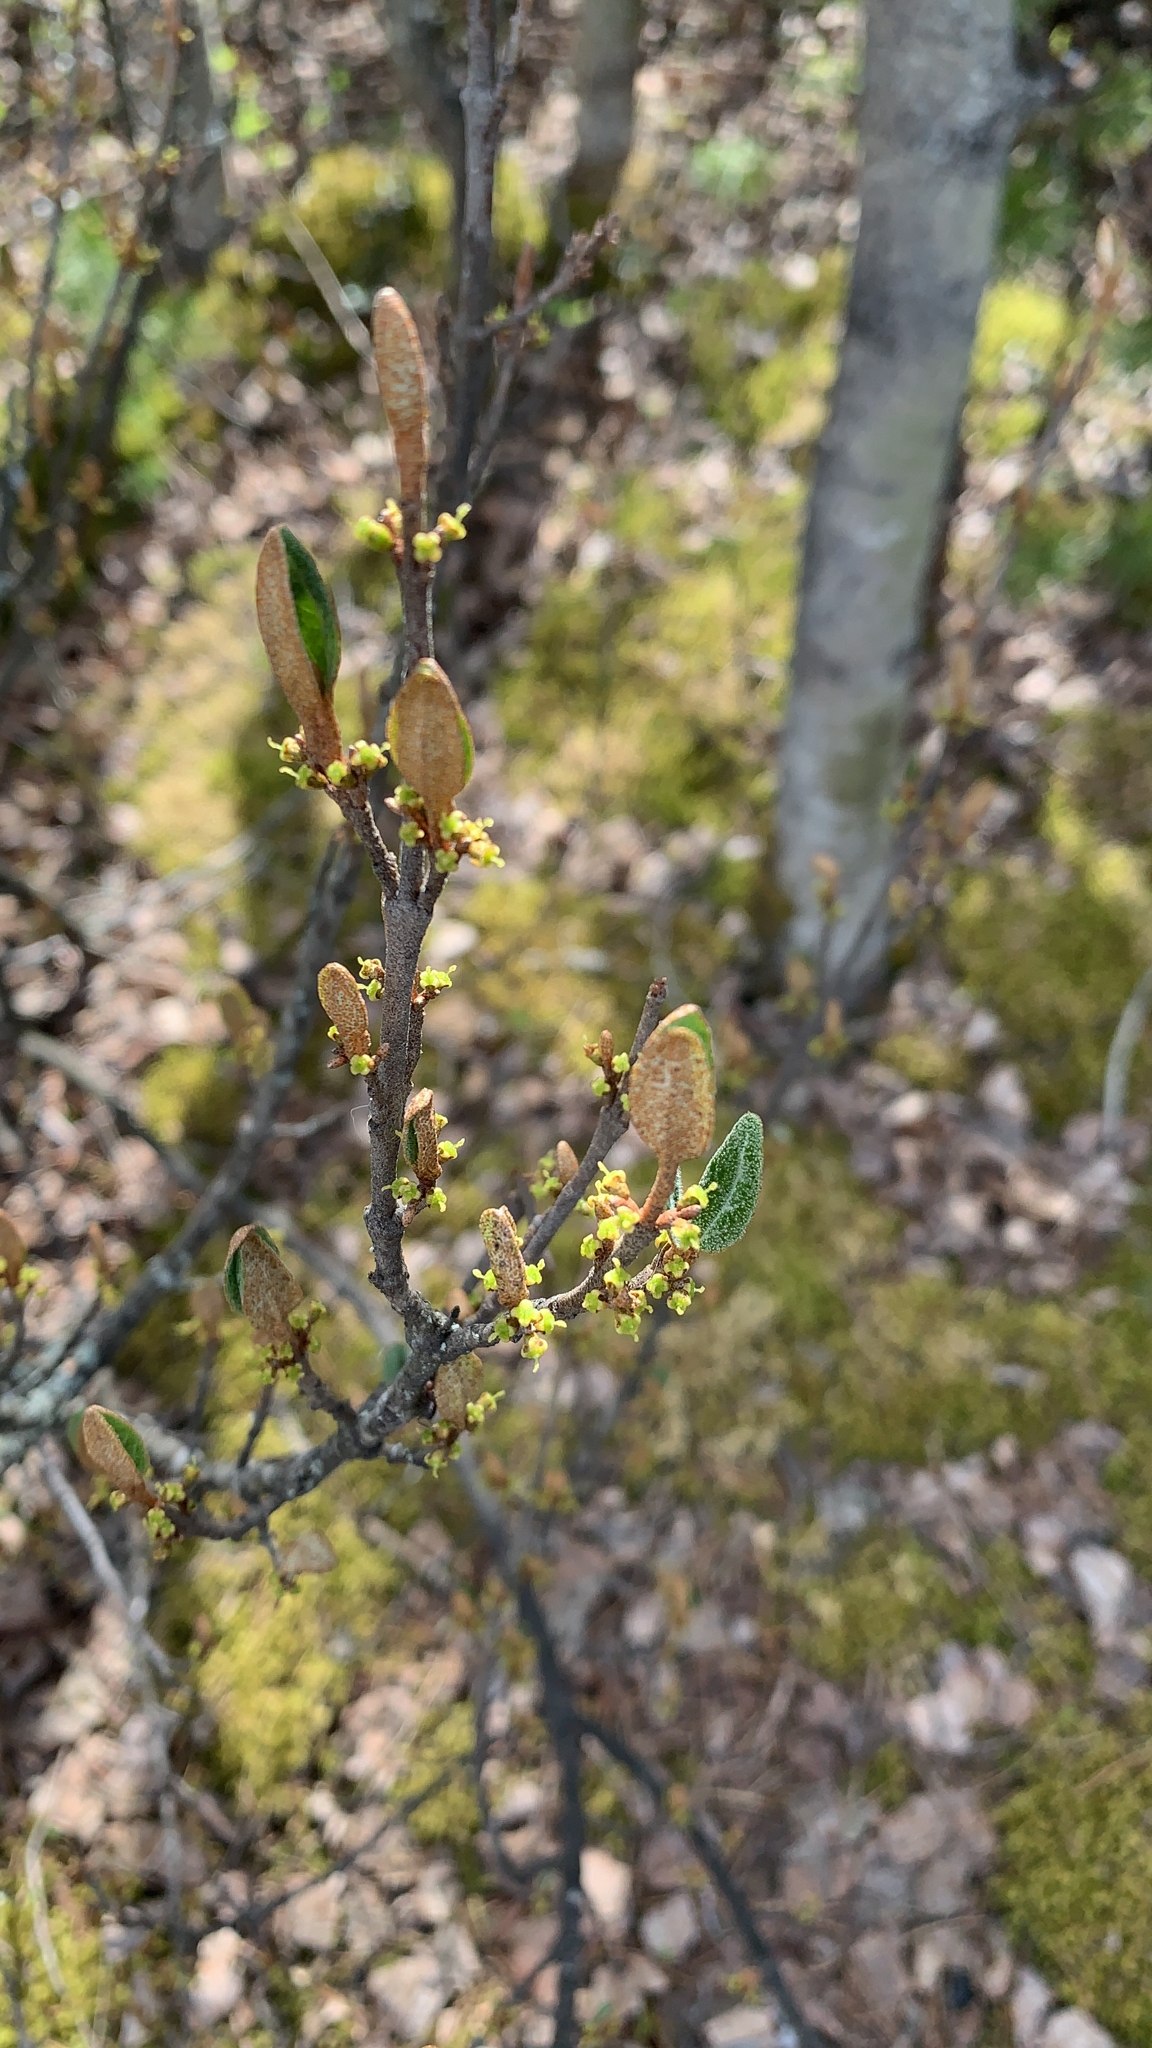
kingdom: Plantae
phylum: Tracheophyta
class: Magnoliopsida
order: Rosales
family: Elaeagnaceae
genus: Shepherdia
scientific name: Shepherdia canadensis
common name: Soapberry
